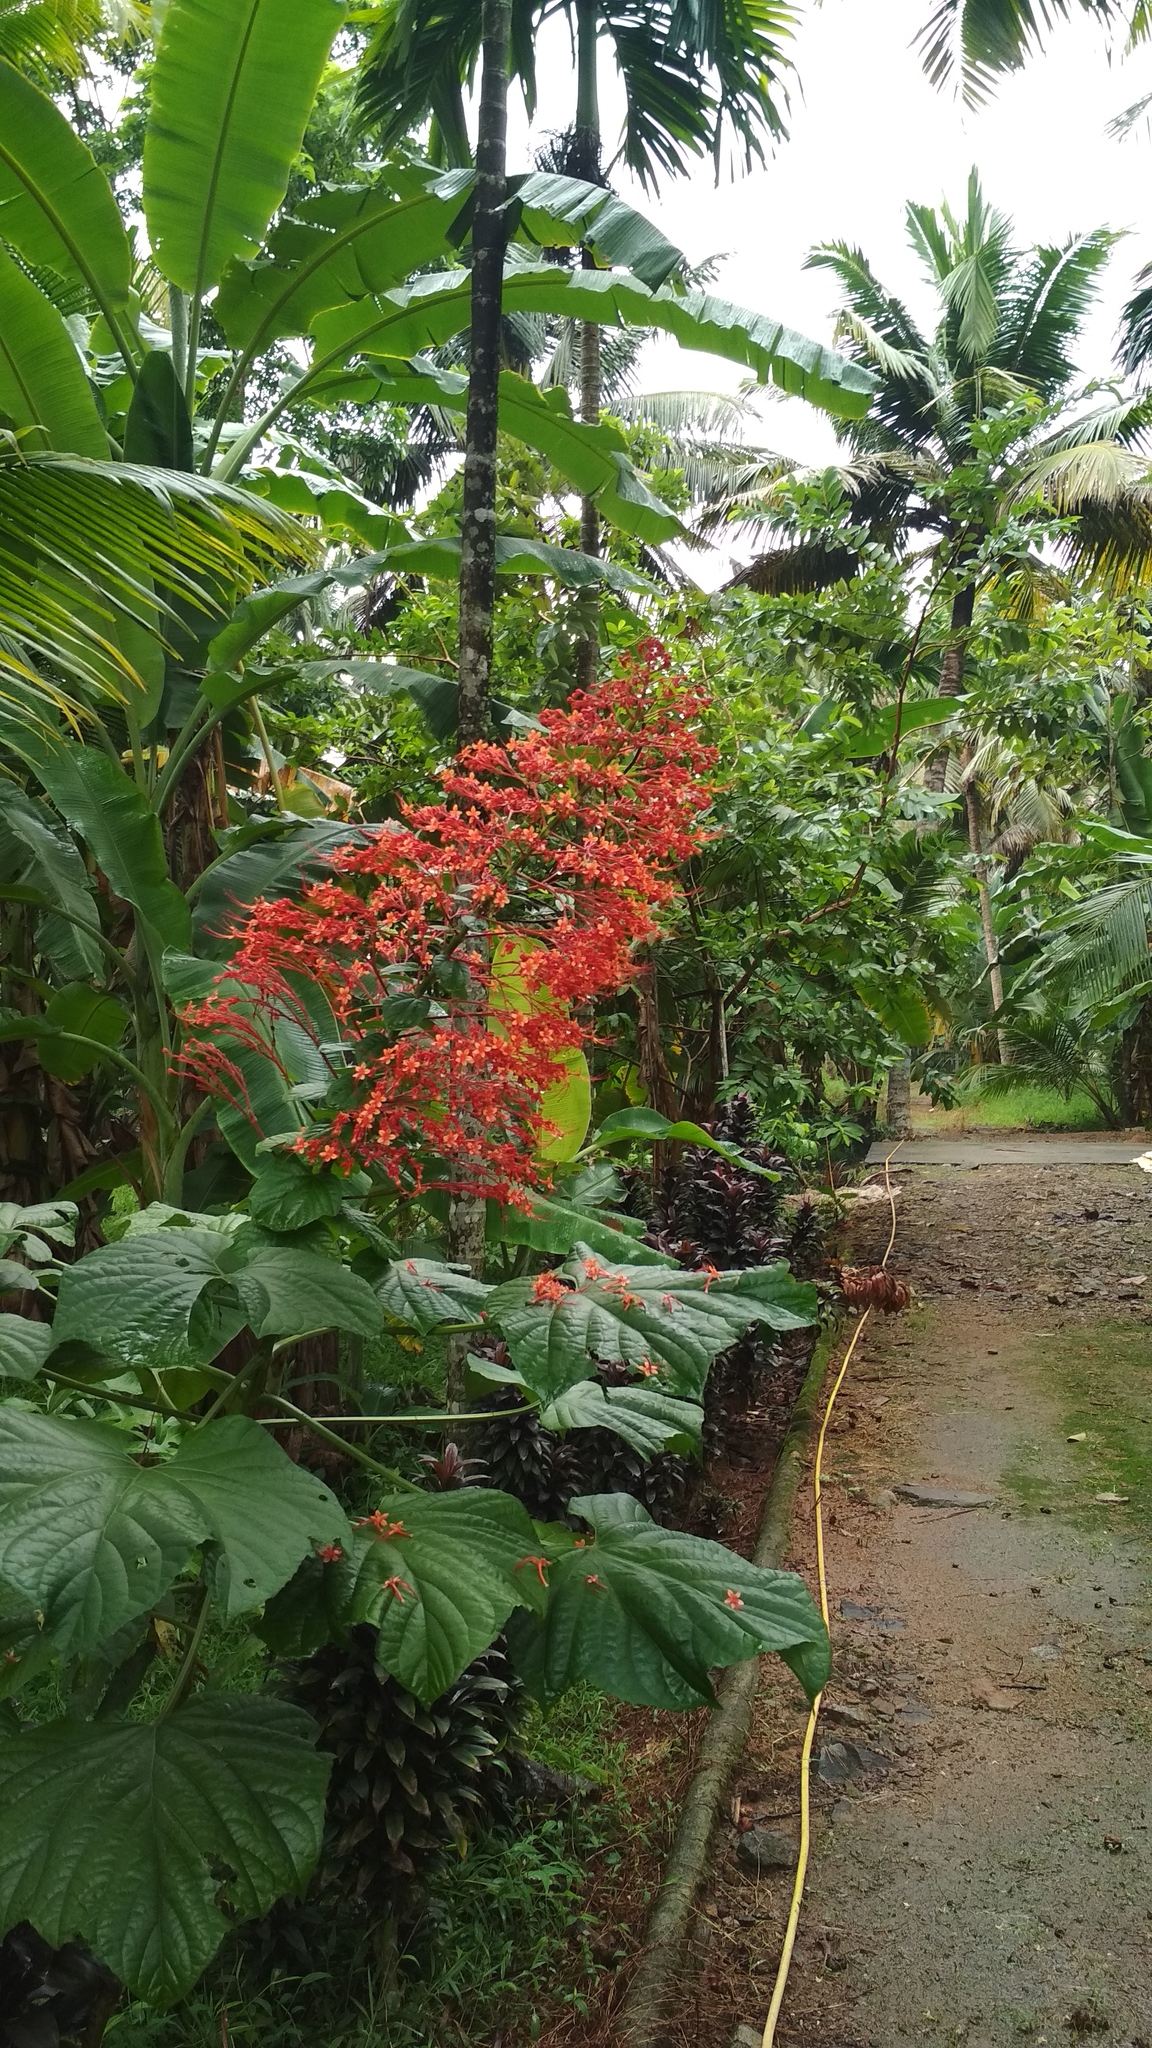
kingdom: Plantae
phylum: Tracheophyta
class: Magnoliopsida
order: Lamiales
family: Lamiaceae
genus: Clerodendrum
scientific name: Clerodendrum paniculatum
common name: Pagoda-flower
